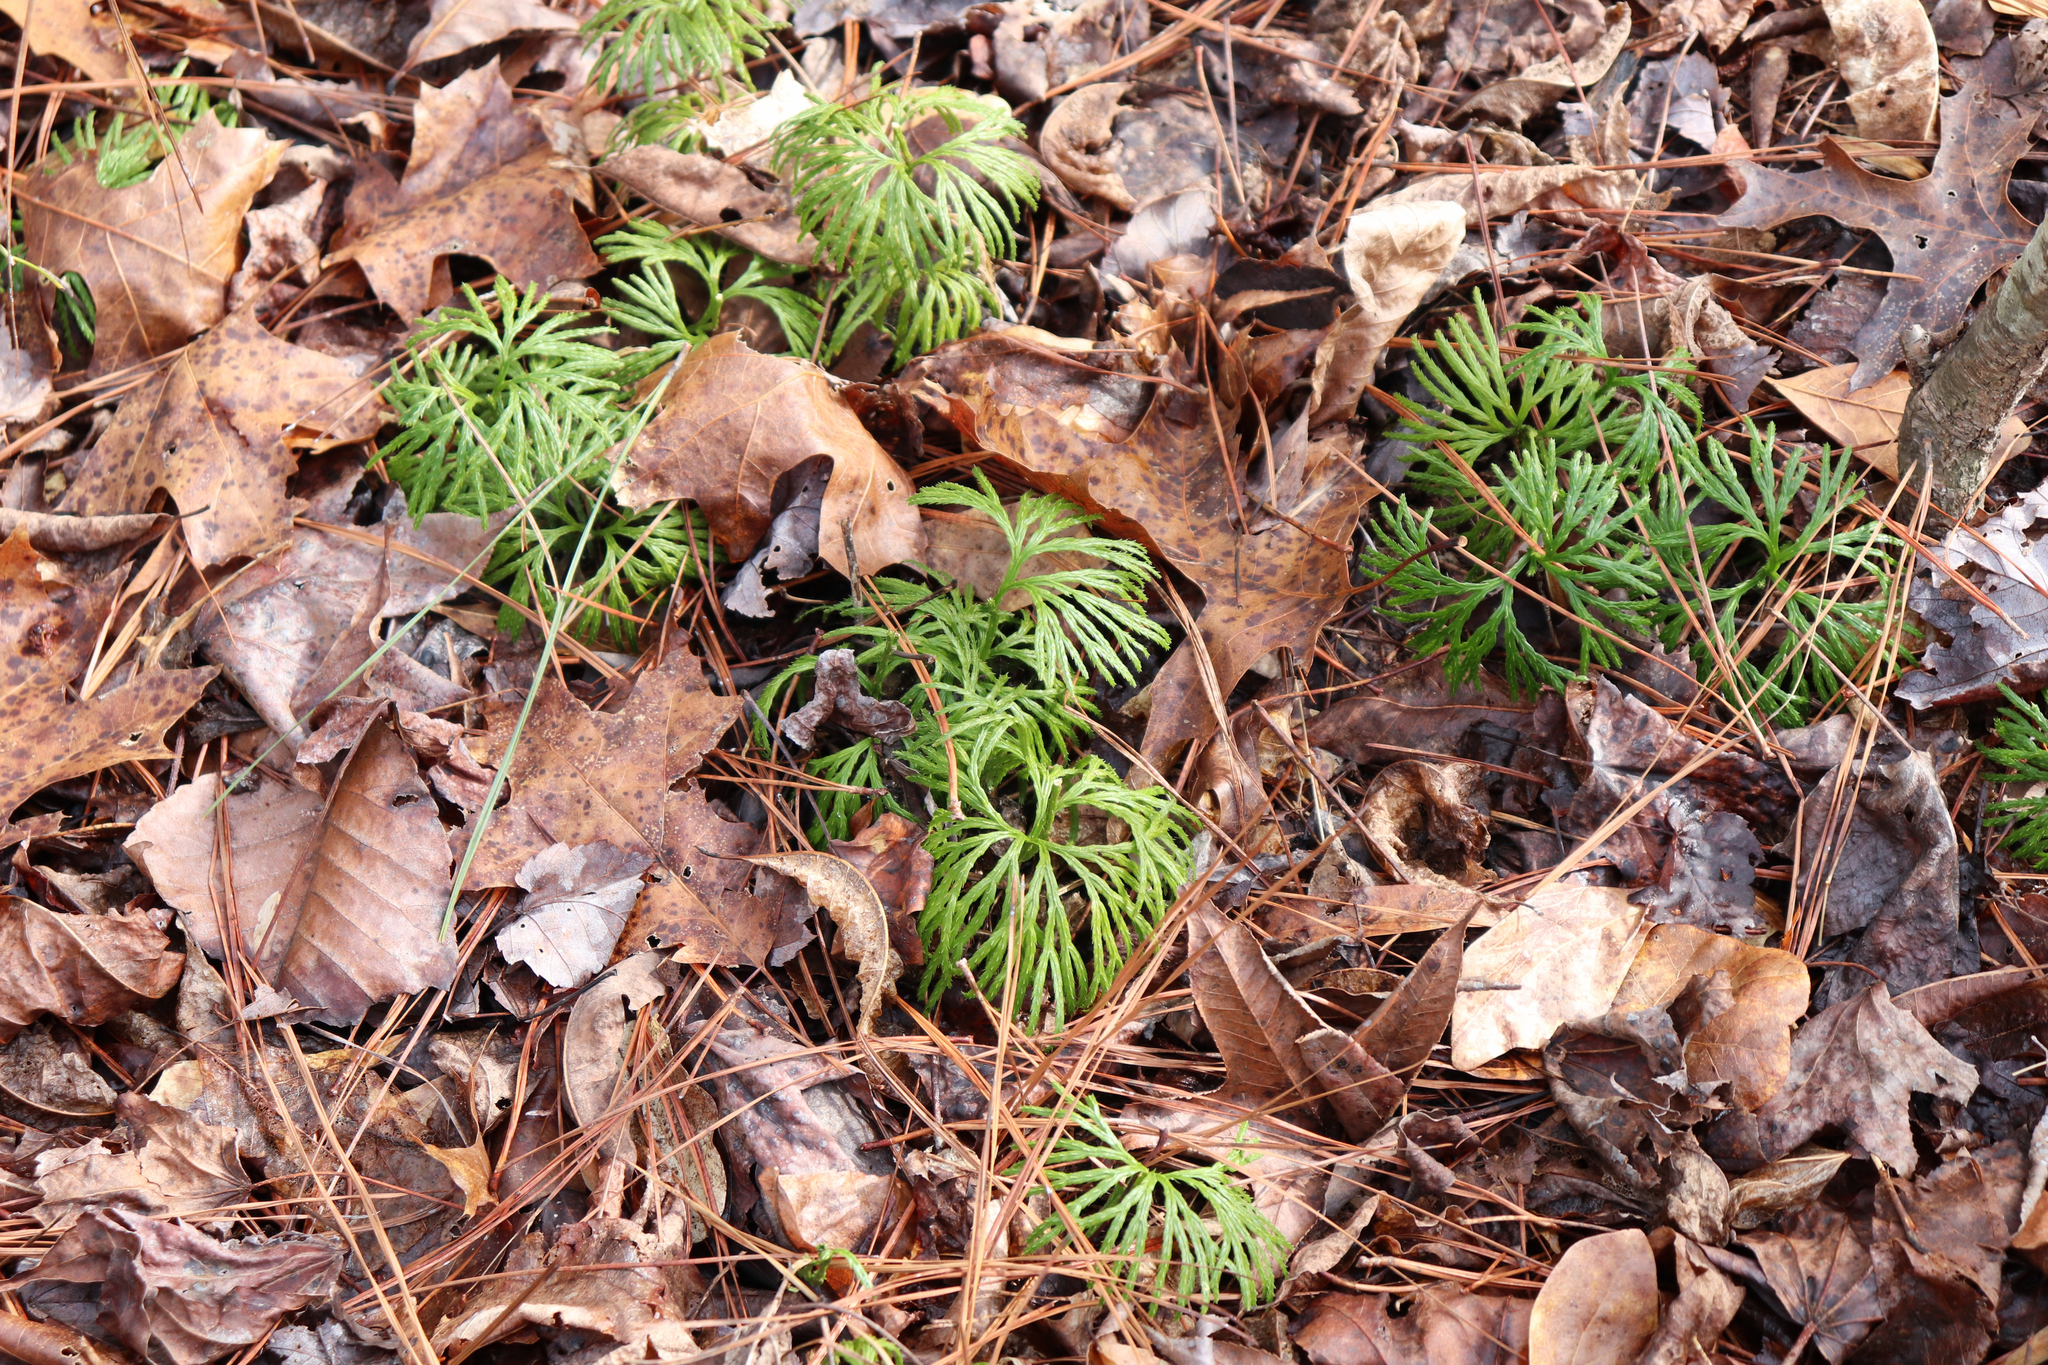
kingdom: Plantae
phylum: Tracheophyta
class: Lycopodiopsida
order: Lycopodiales
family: Lycopodiaceae
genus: Diphasiastrum
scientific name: Diphasiastrum digitatum
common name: Southern running-pine
